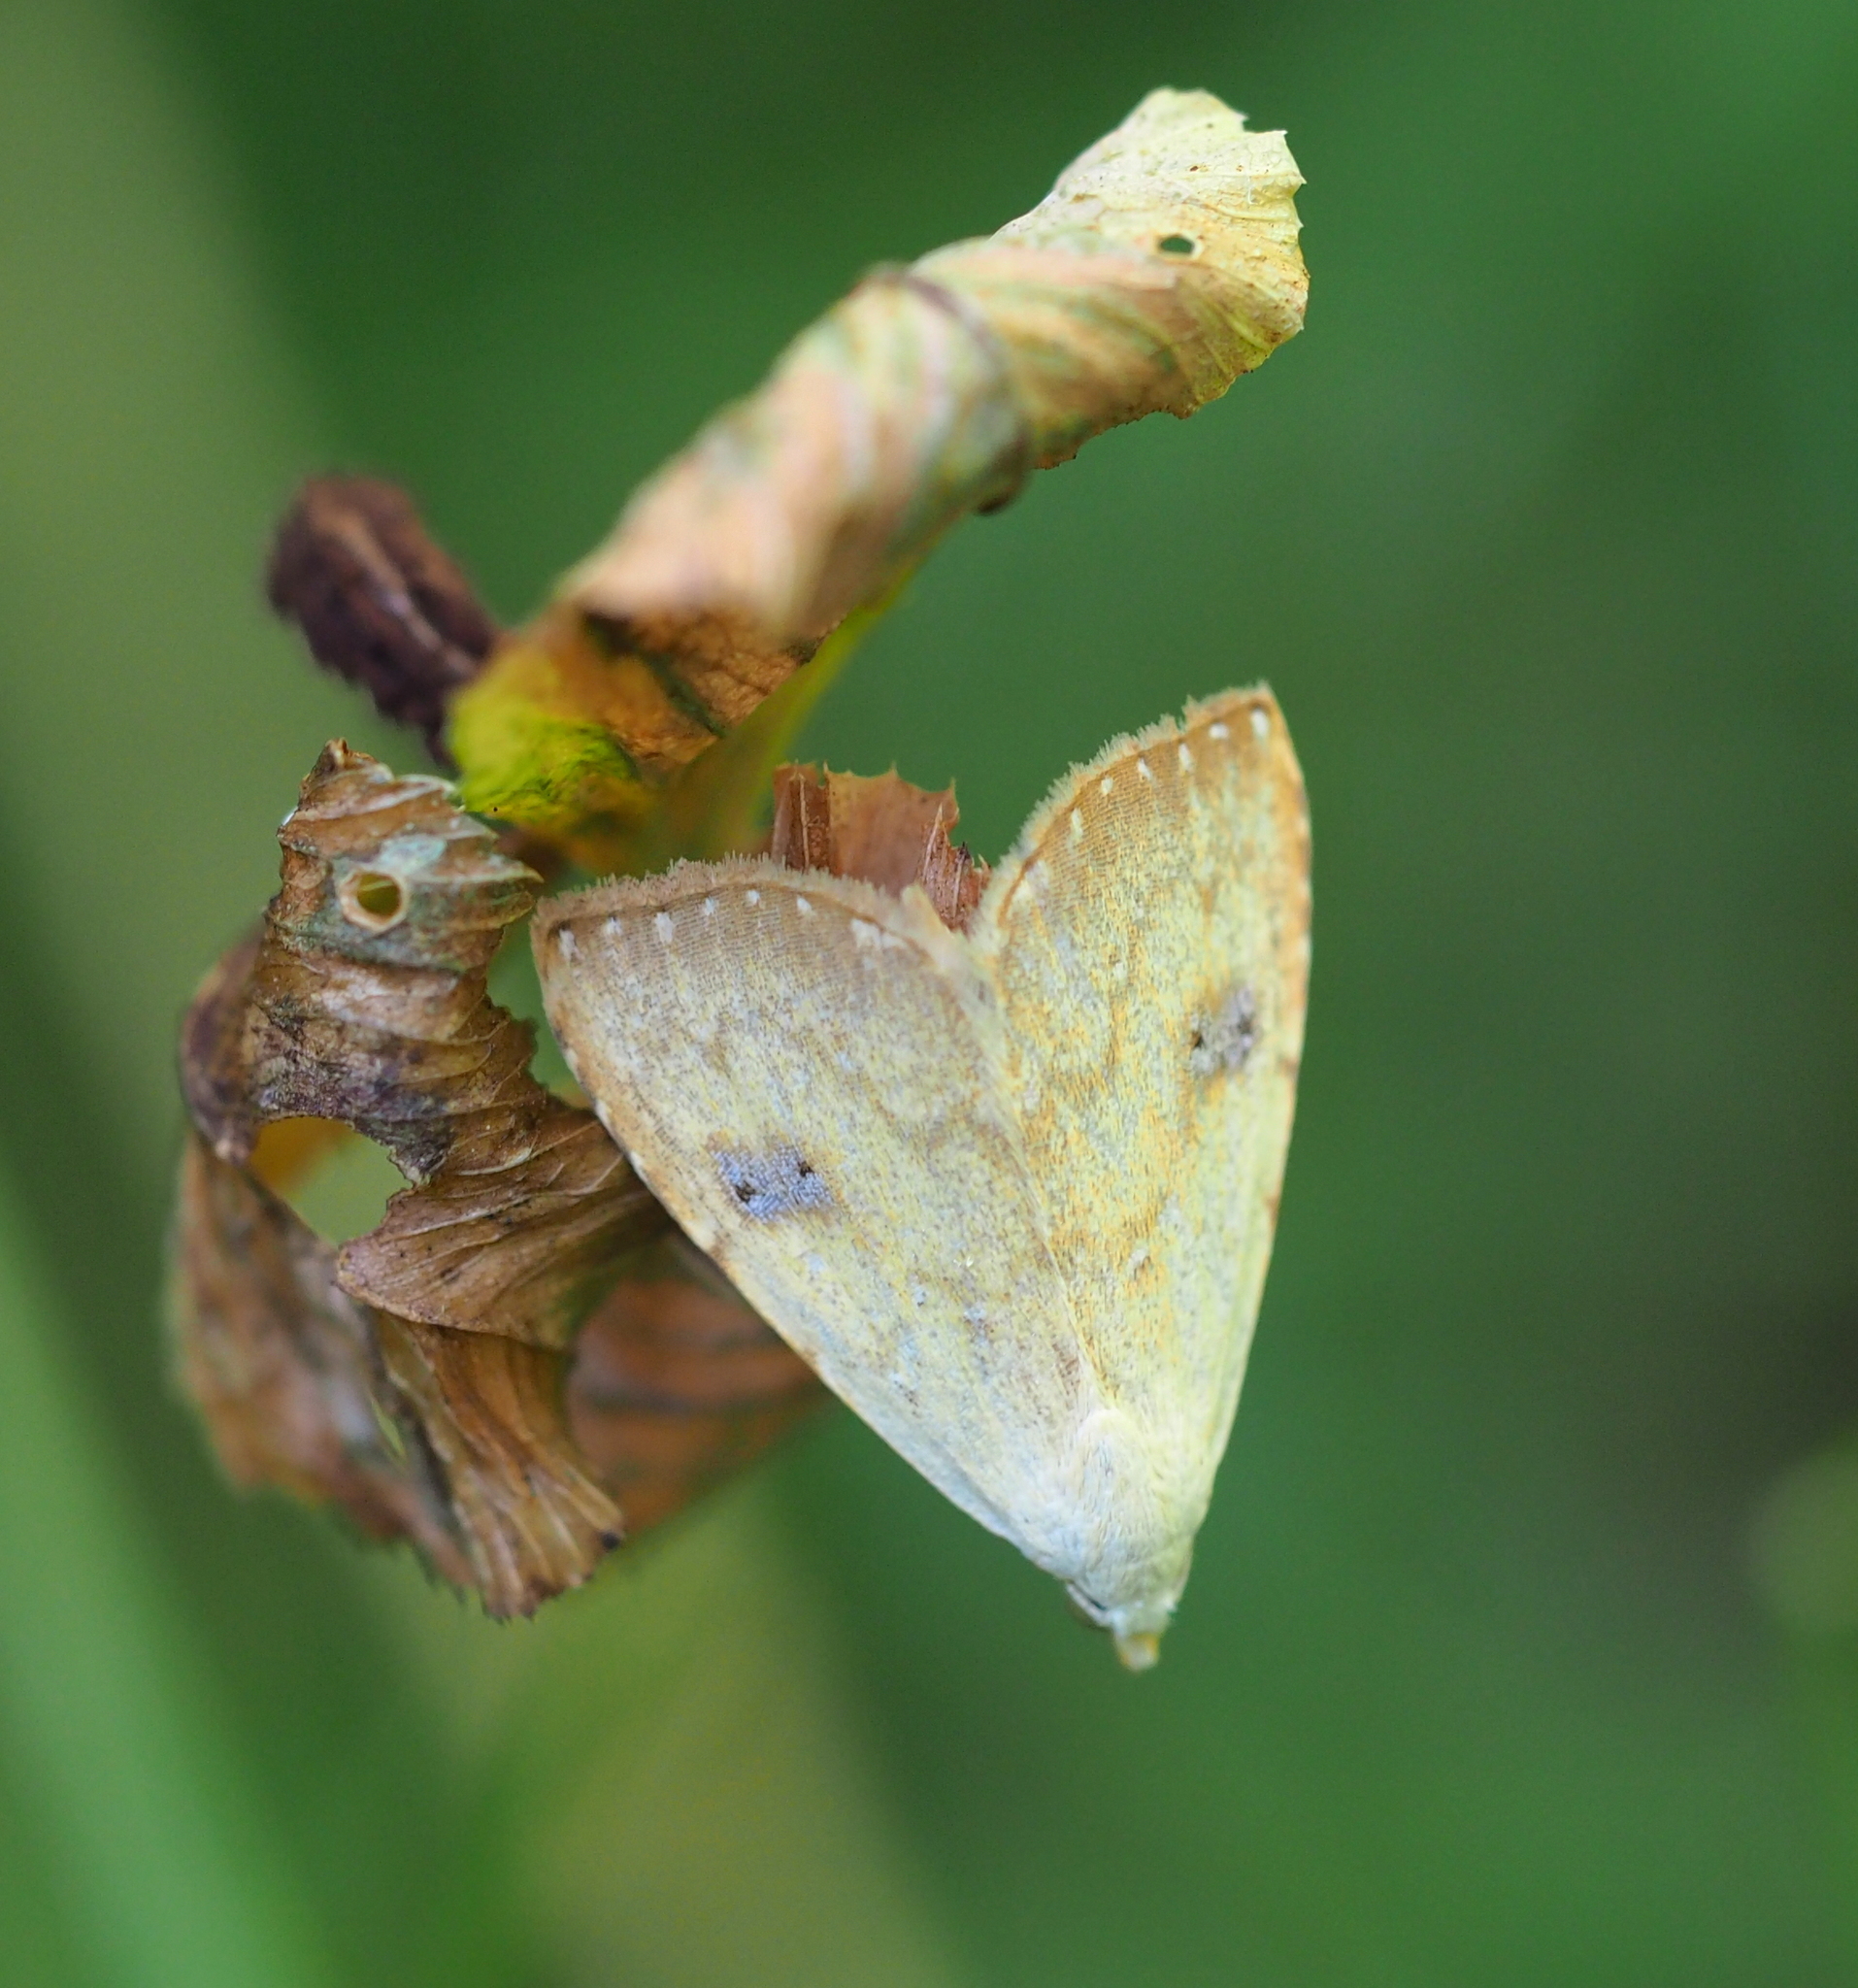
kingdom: Animalia
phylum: Arthropoda
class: Insecta
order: Lepidoptera
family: Erebidae
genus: Rivula
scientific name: Rivula sericealis
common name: Straw dot
